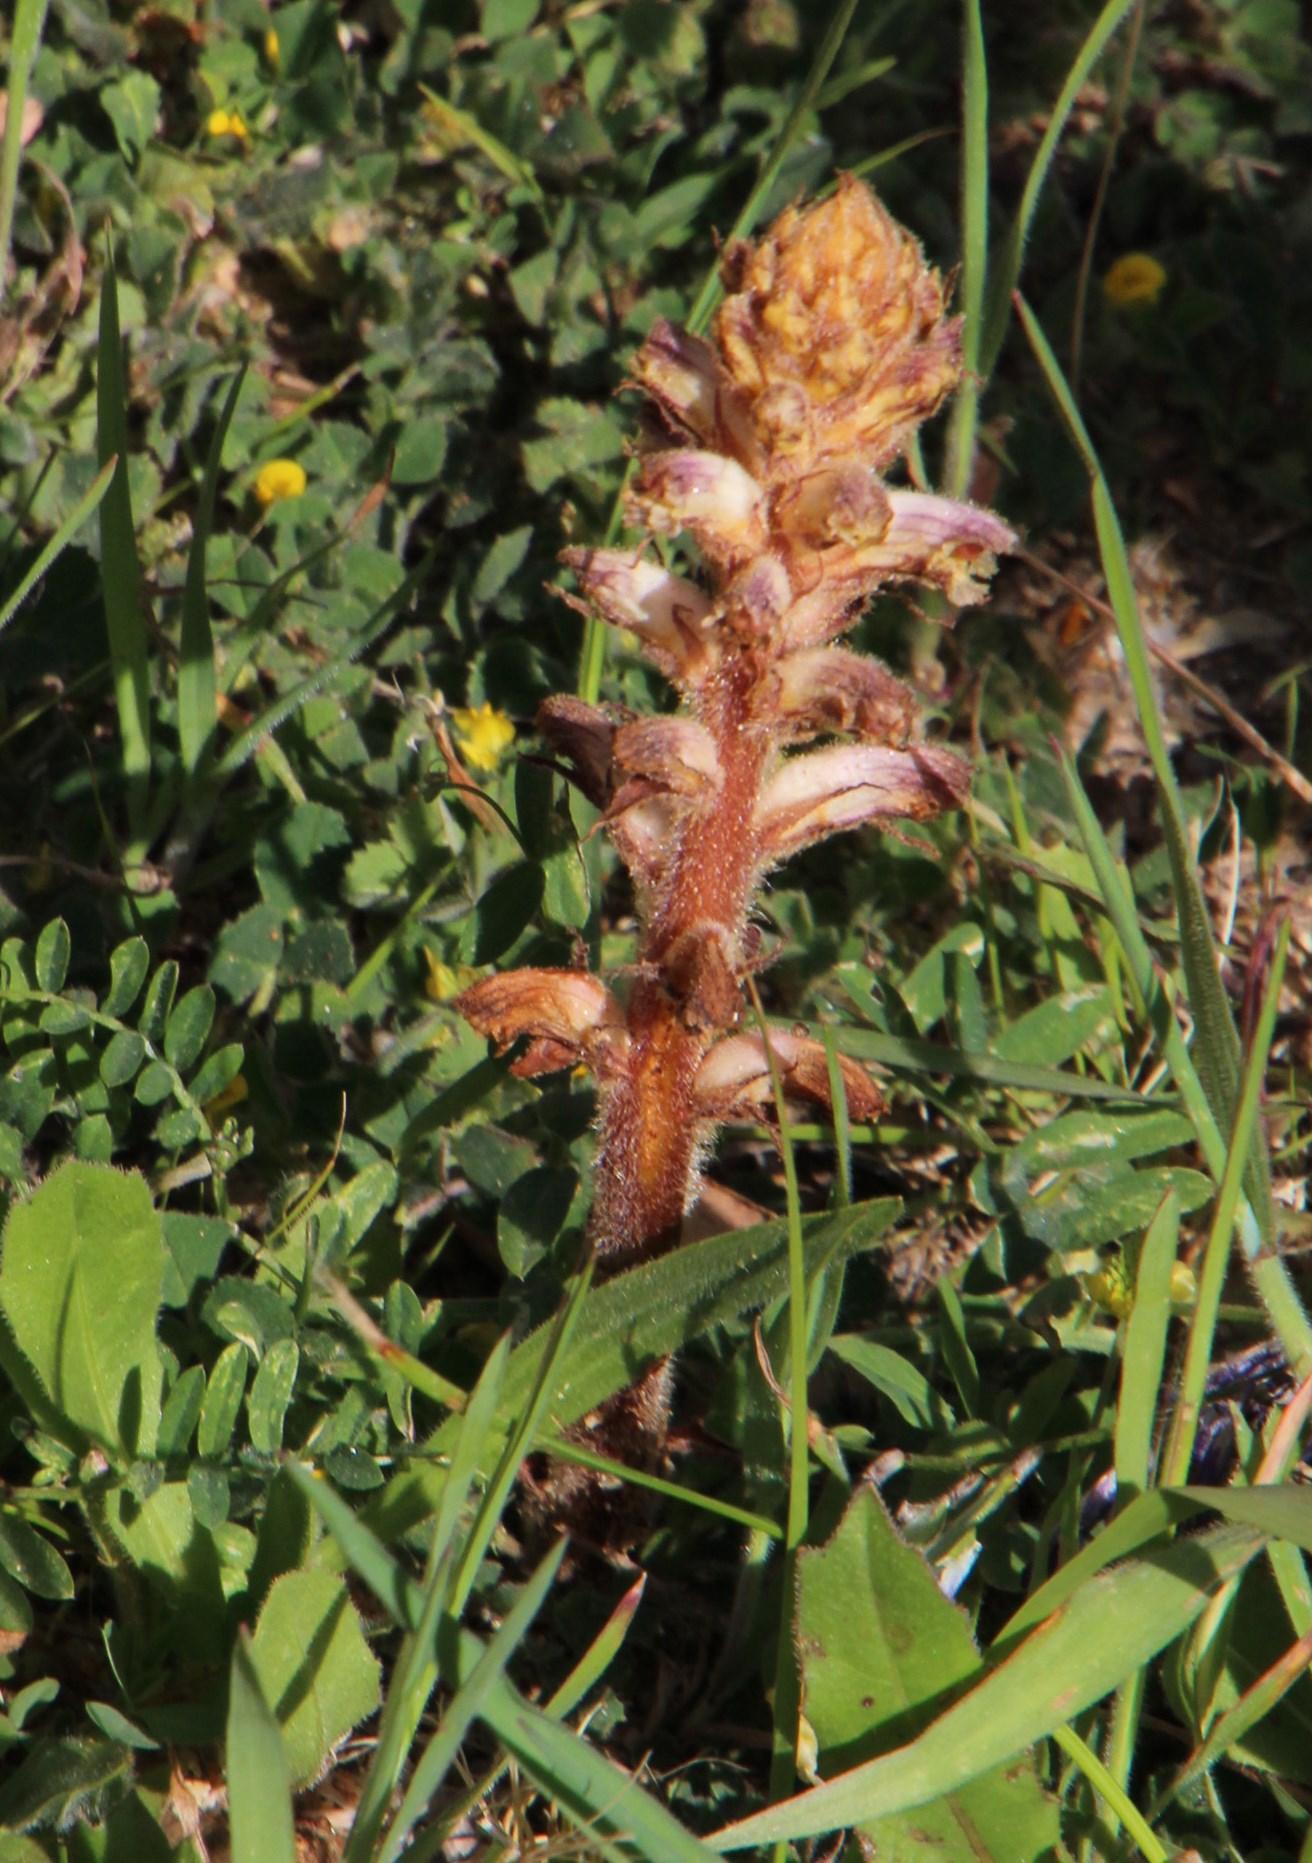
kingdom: Plantae
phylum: Tracheophyta
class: Magnoliopsida
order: Lamiales
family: Orobanchaceae
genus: Orobanche
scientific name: Orobanche minor
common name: Common broomrape
